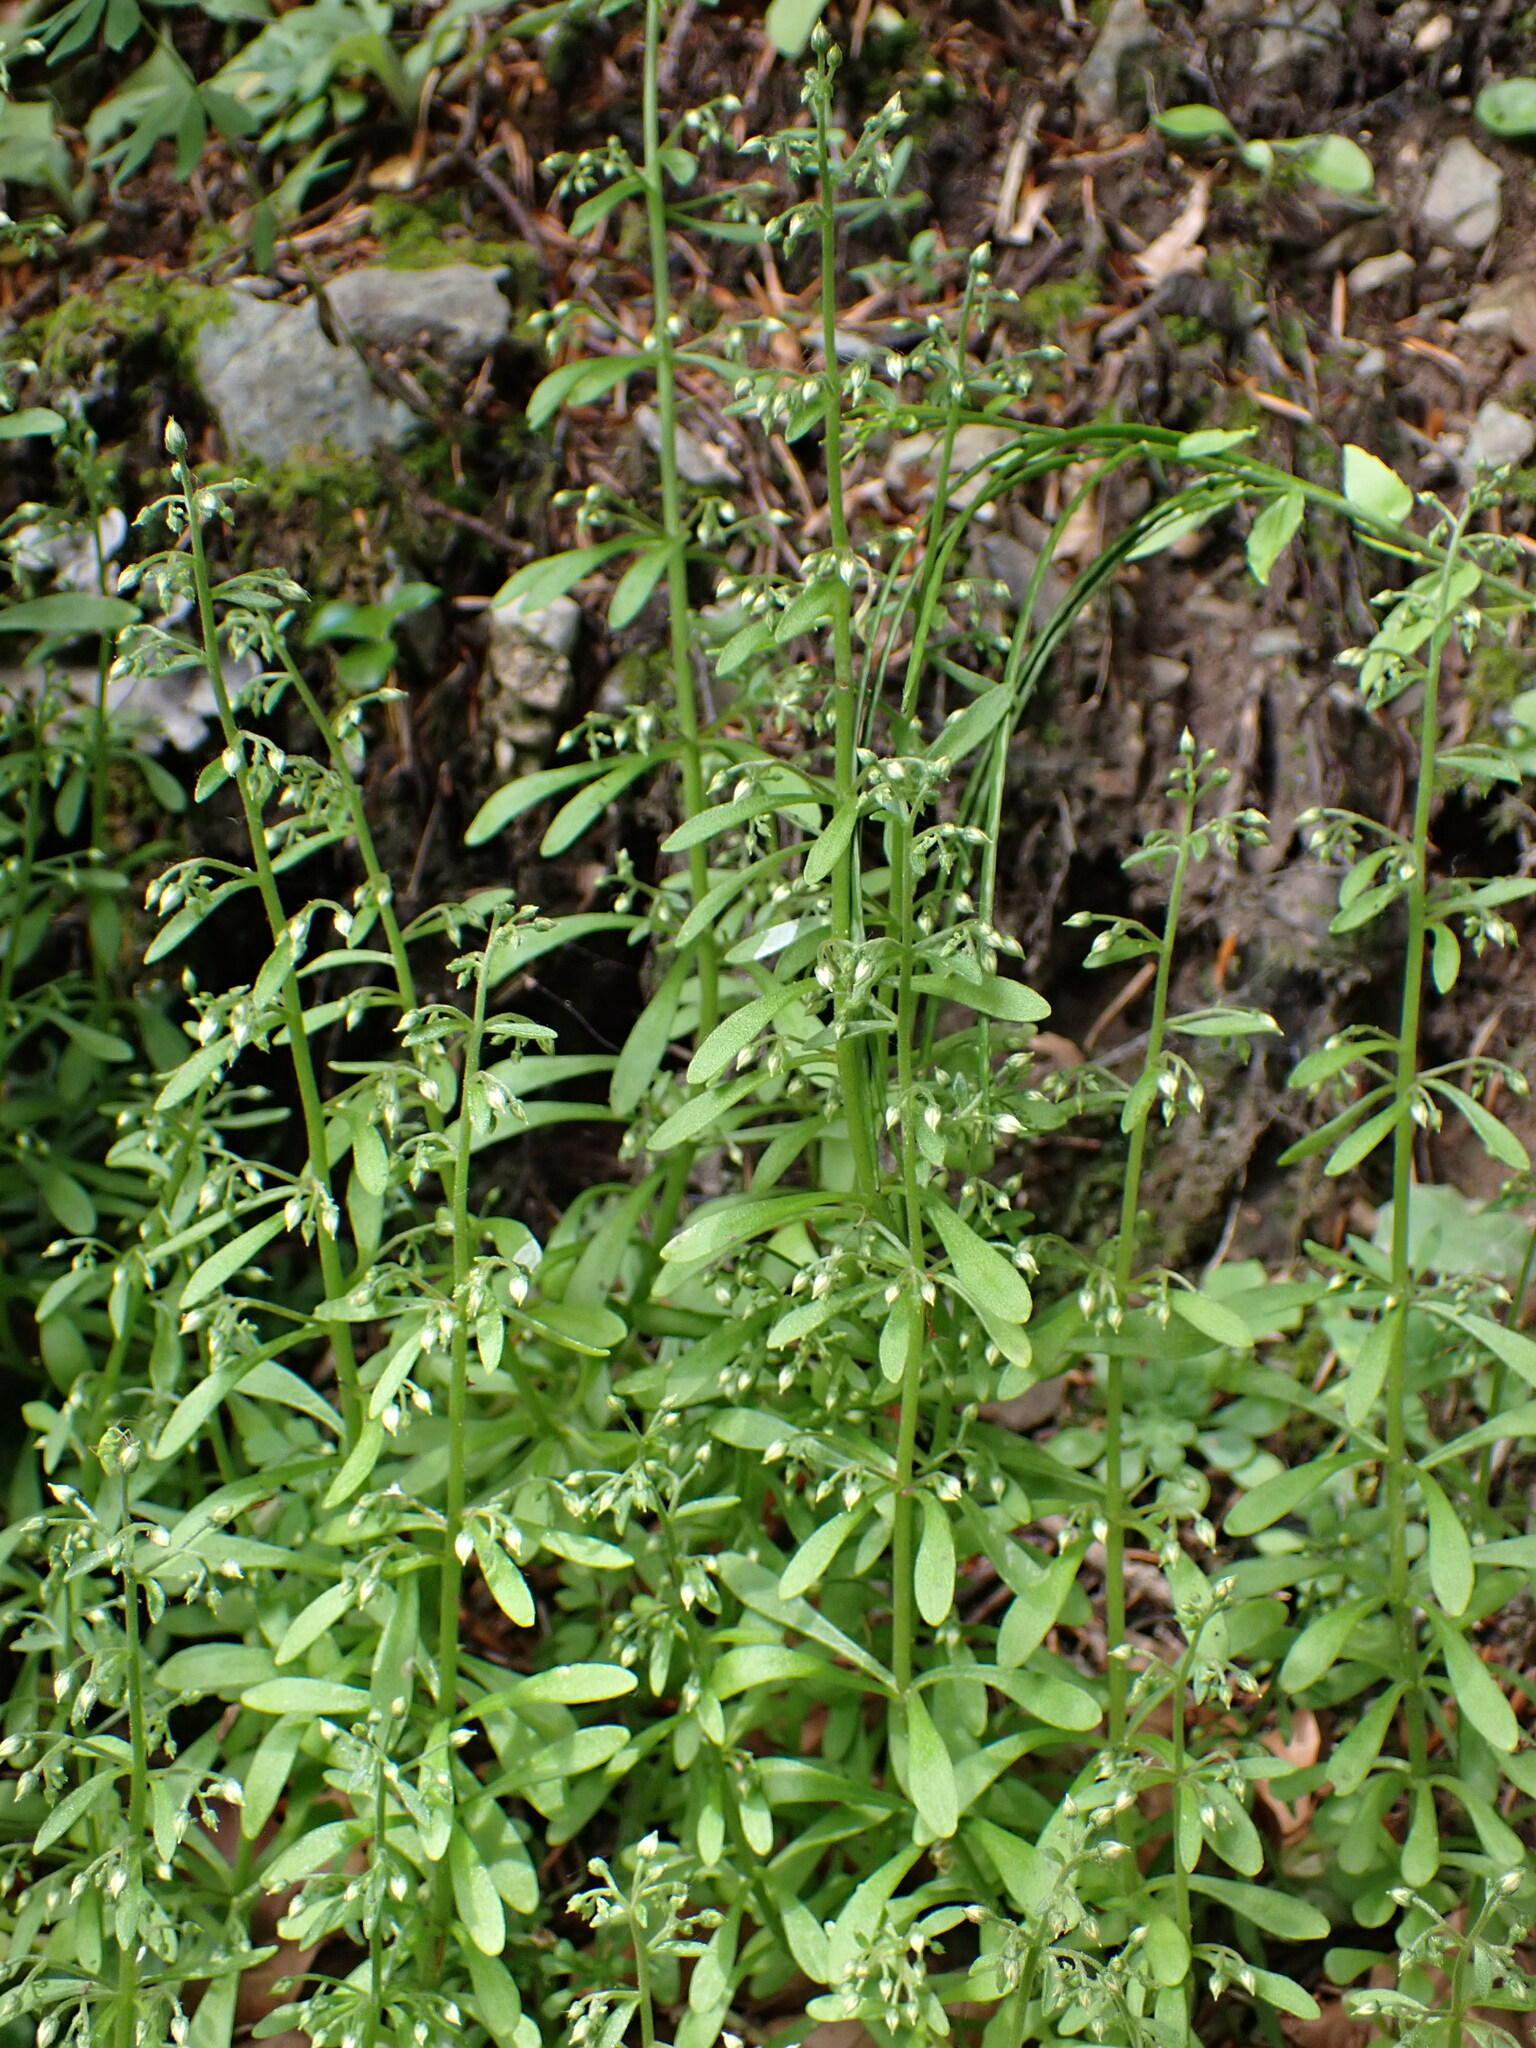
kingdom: Plantae
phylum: Tracheophyta
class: Magnoliopsida
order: Saxifragales
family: Crassulaceae
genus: Sedum
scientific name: Sedum cepaea
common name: Pink stonecrop
